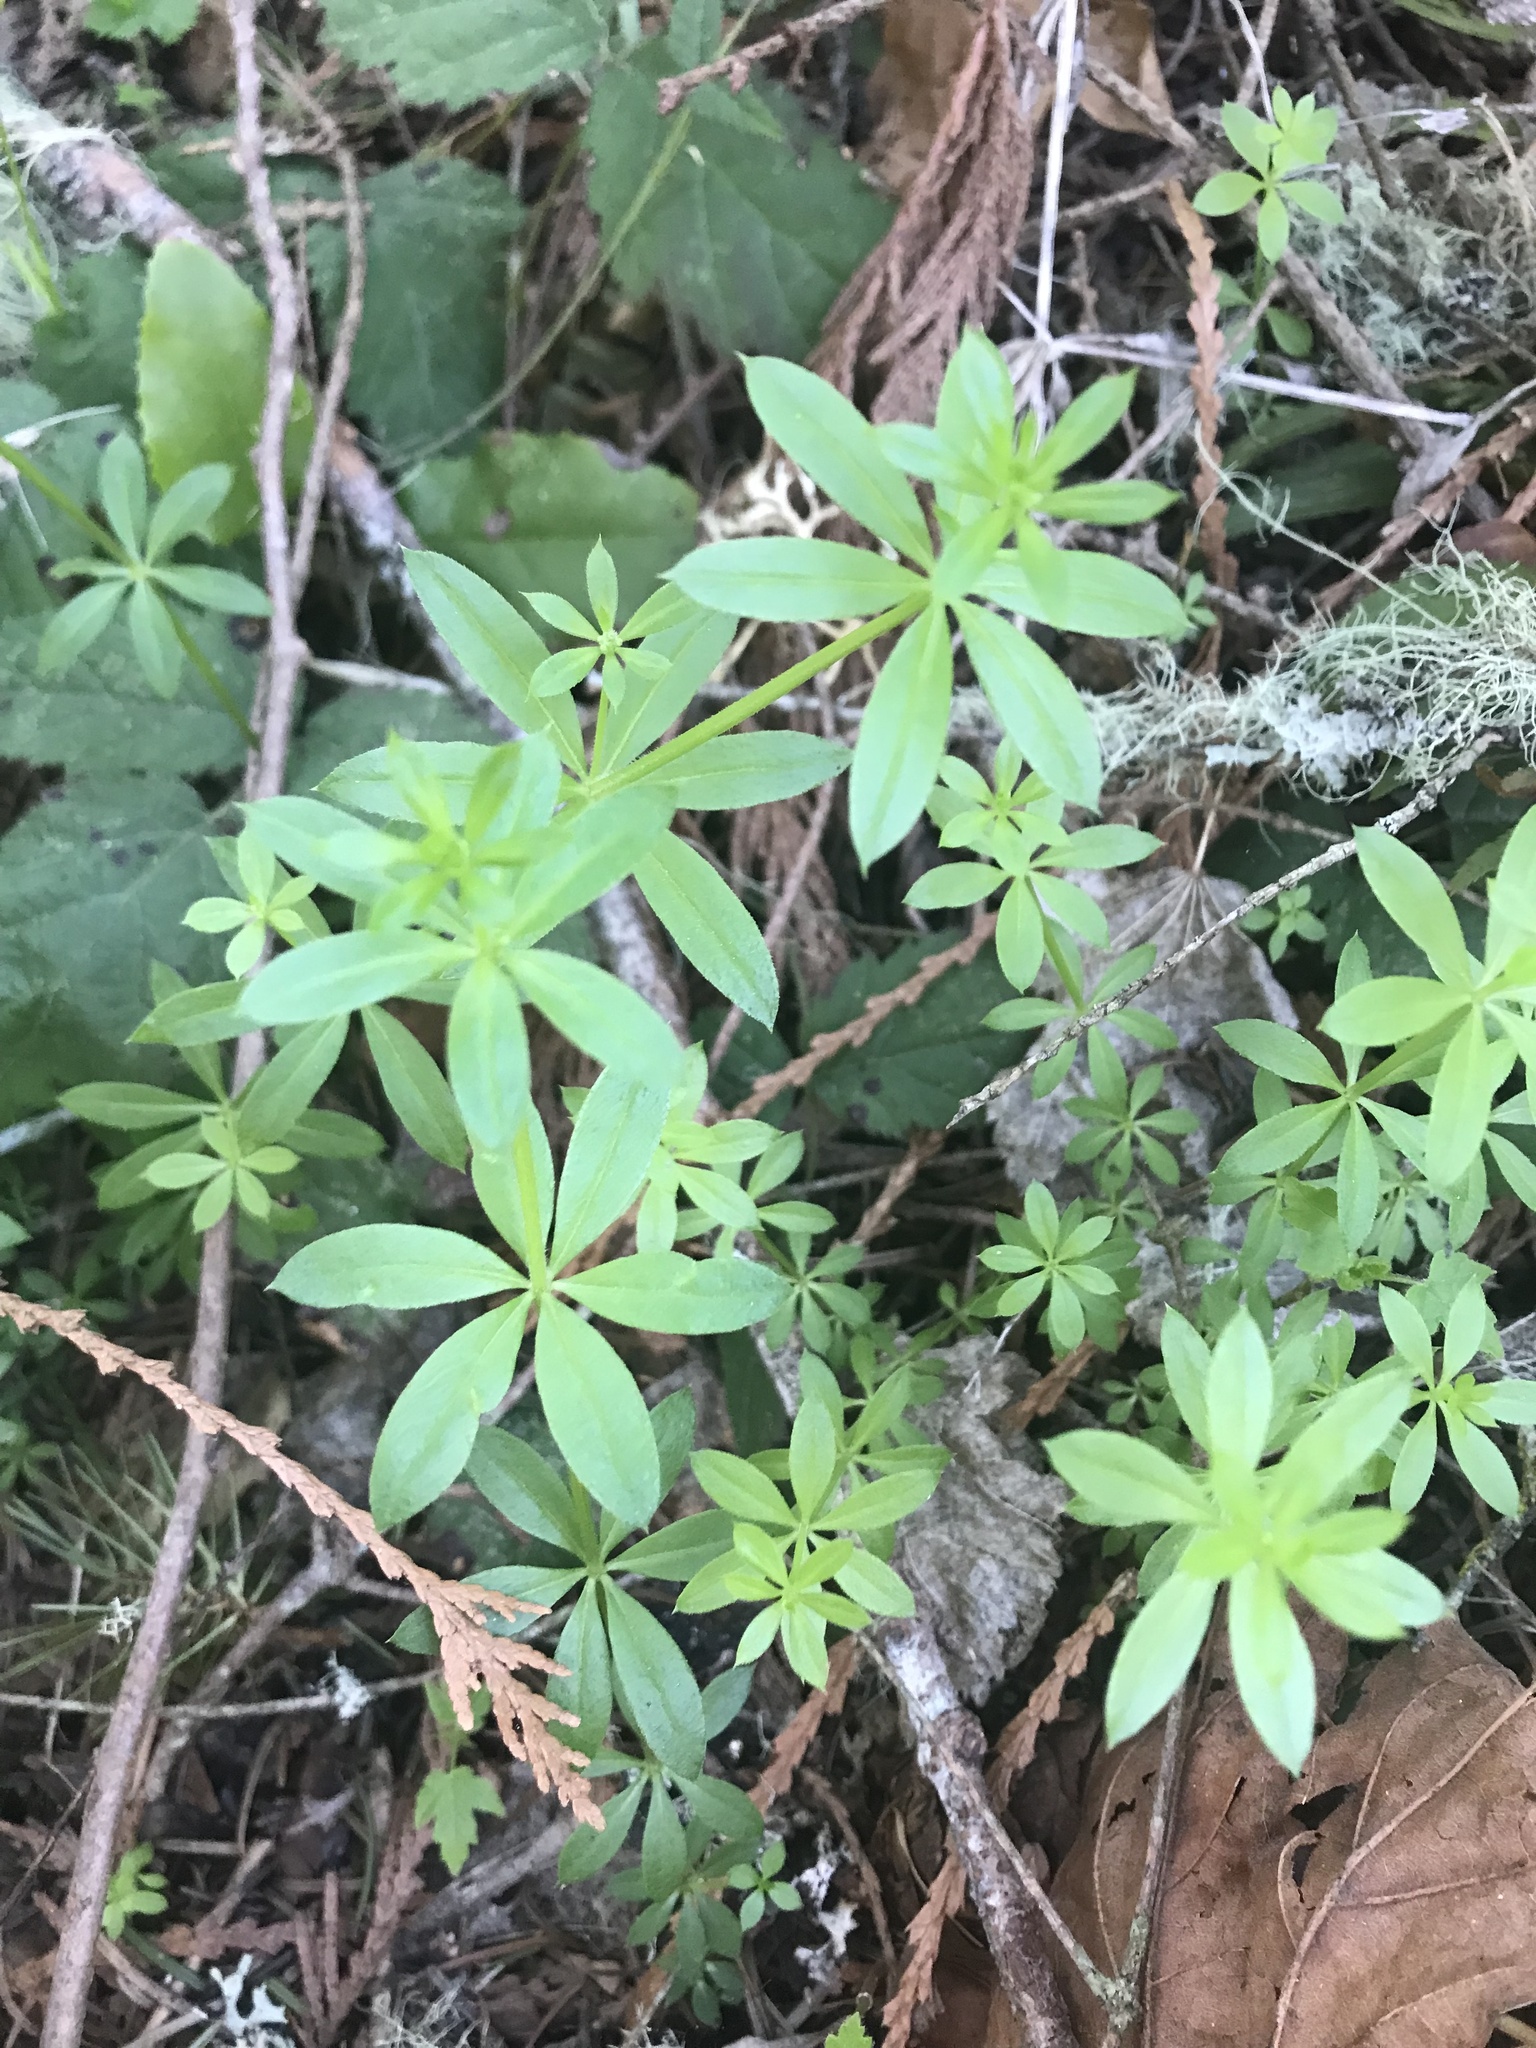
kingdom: Plantae
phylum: Tracheophyta
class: Magnoliopsida
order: Gentianales
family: Rubiaceae
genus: Galium
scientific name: Galium triflorum
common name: Fragrant bedstraw
